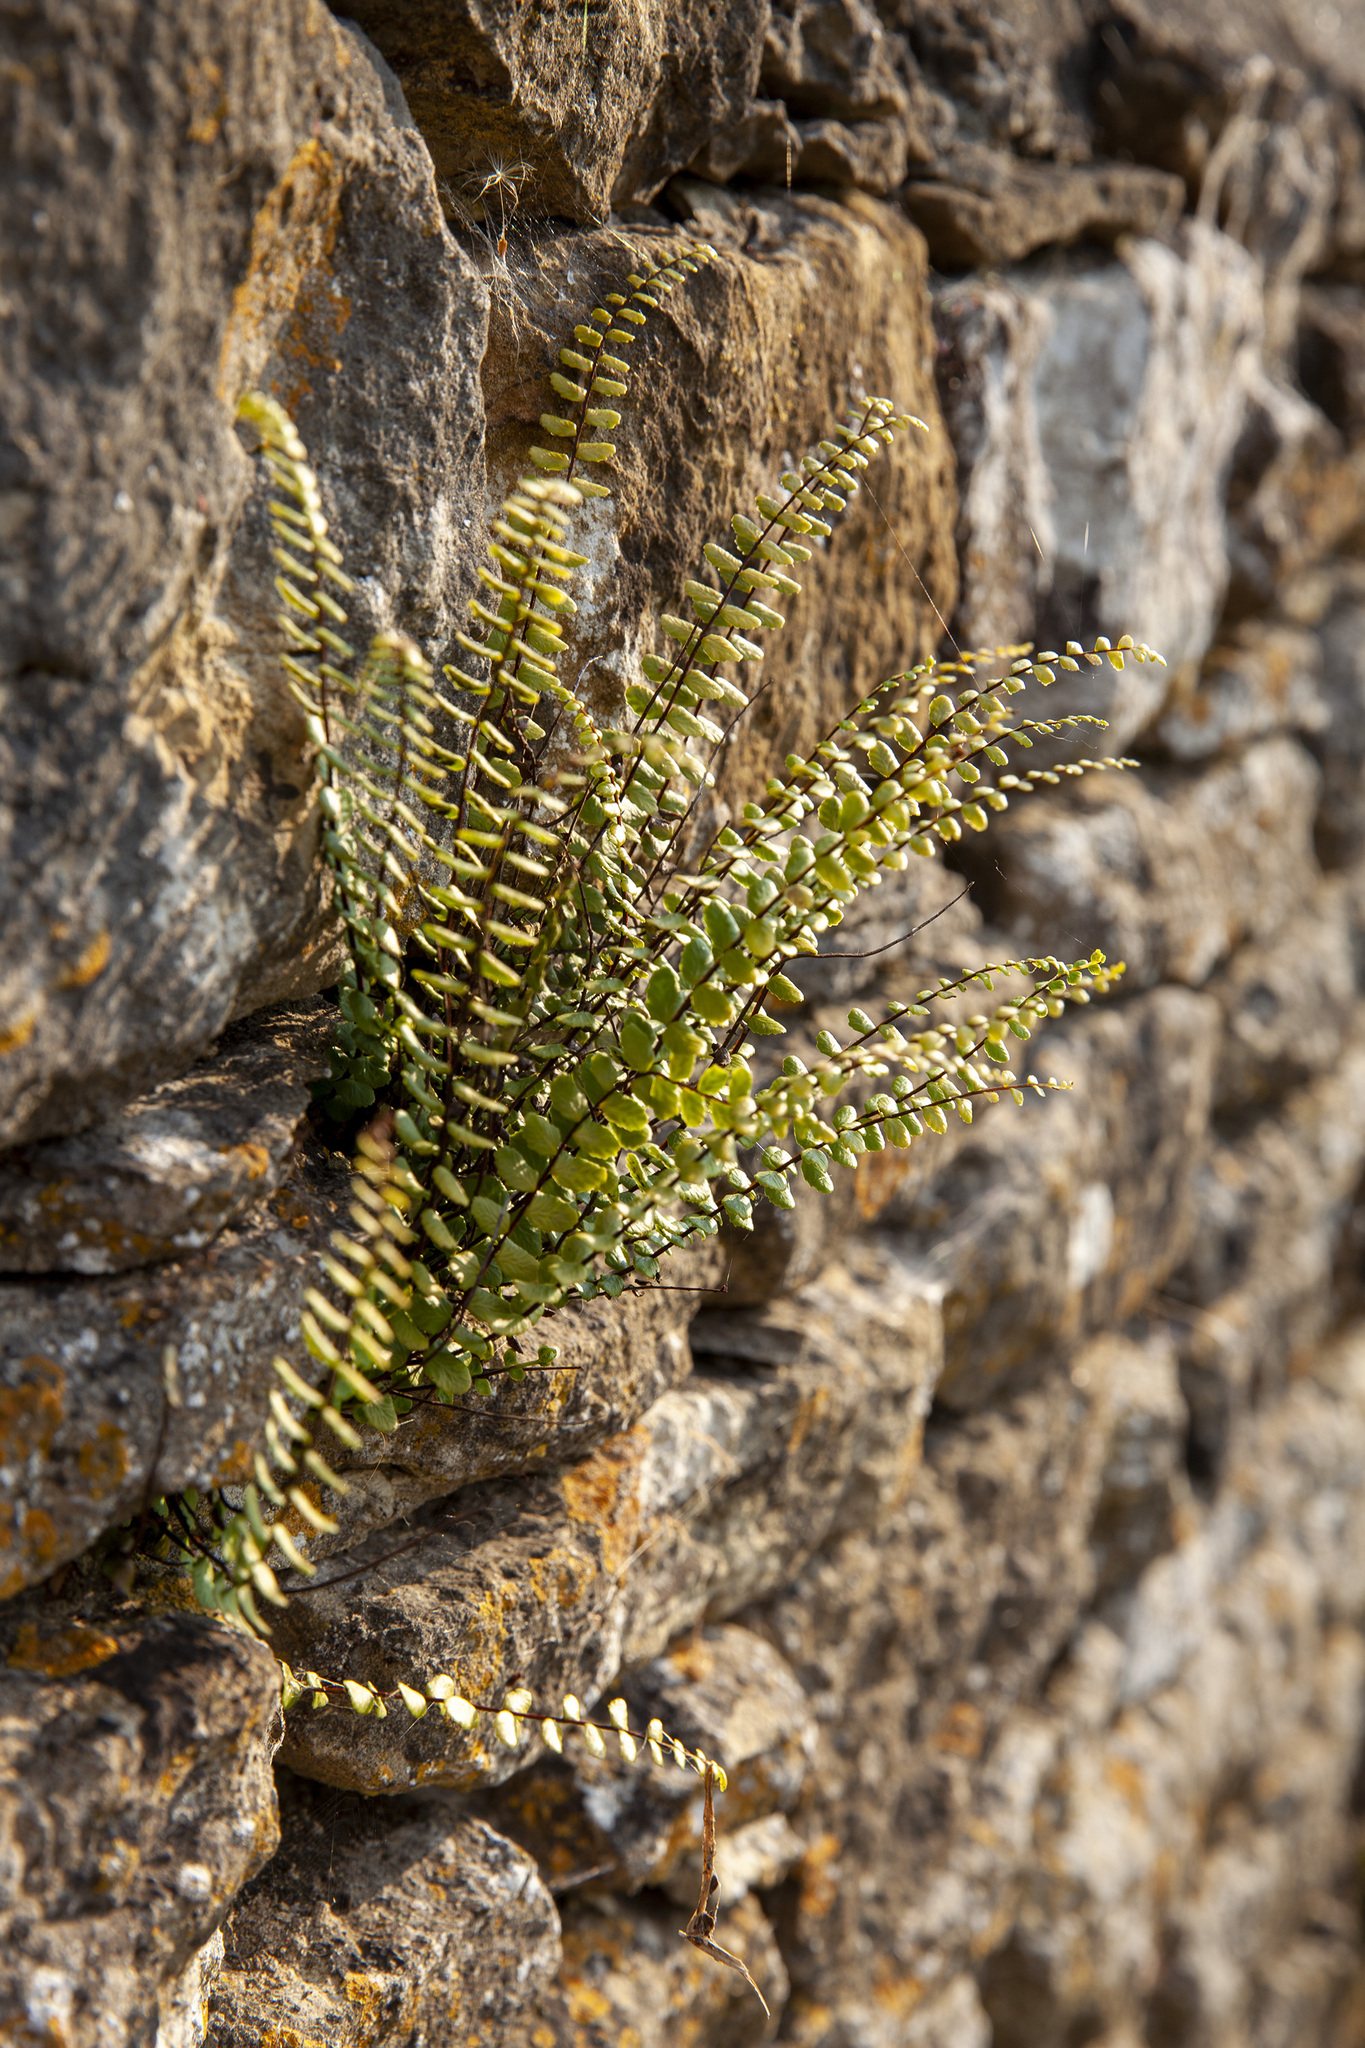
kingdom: Plantae
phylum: Tracheophyta
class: Polypodiopsida
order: Polypodiales
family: Aspleniaceae
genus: Asplenium
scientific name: Asplenium trichomanes
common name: Maidenhair spleenwort
